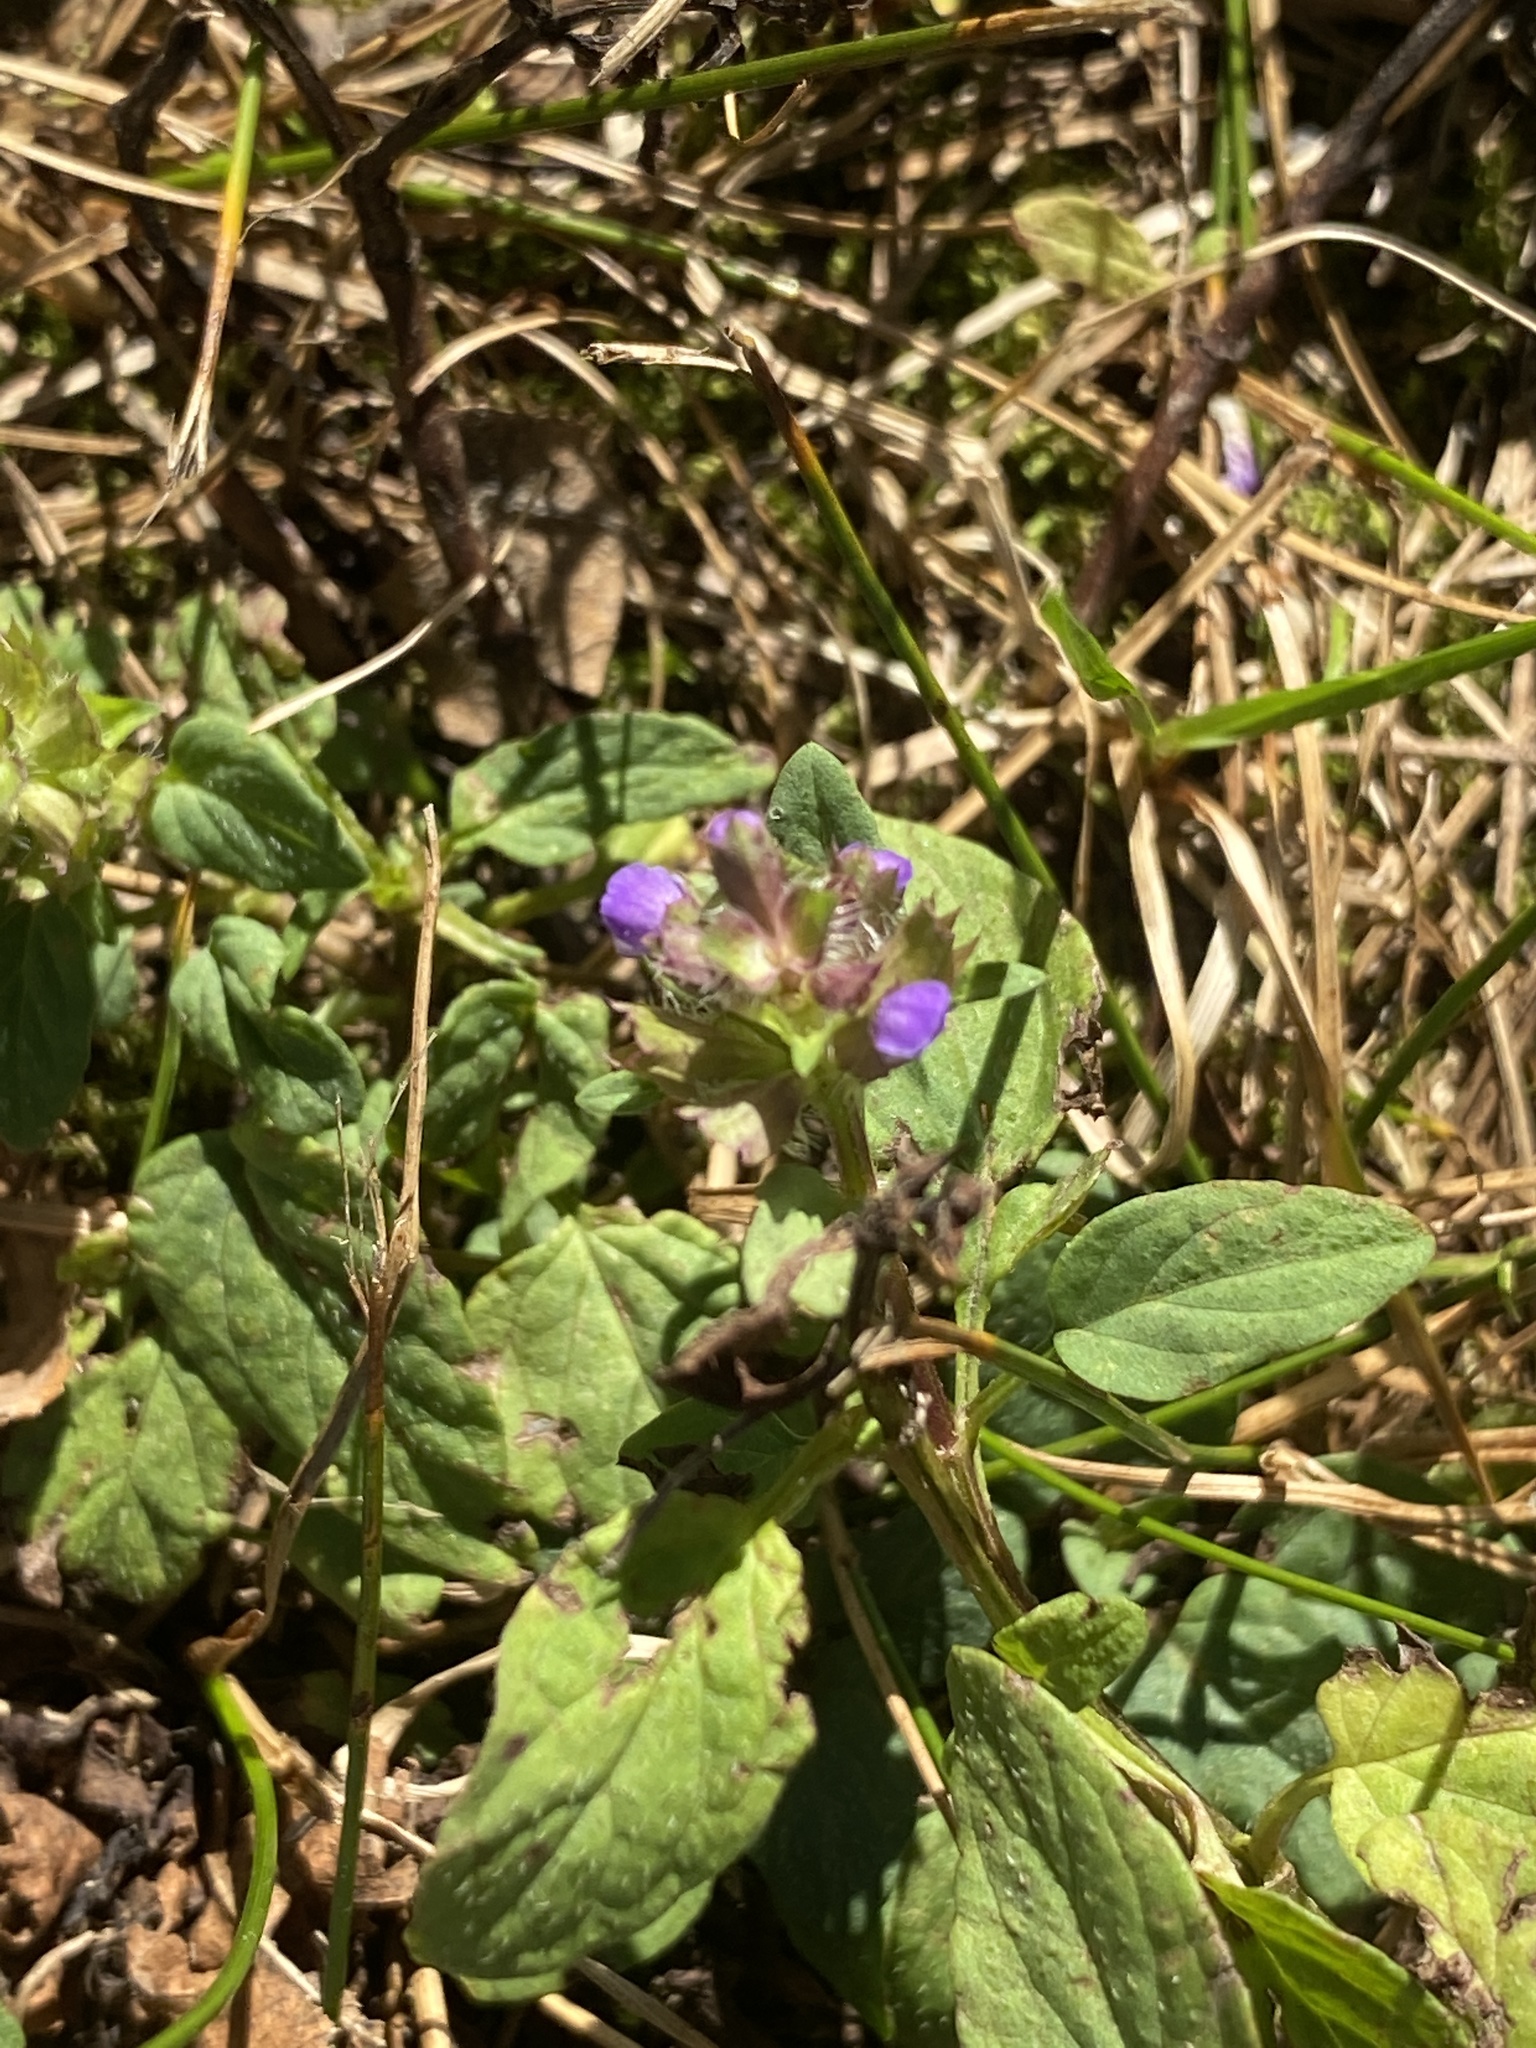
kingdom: Plantae
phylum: Tracheophyta
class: Magnoliopsida
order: Lamiales
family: Lamiaceae
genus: Prunella
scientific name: Prunella vulgaris
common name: Heal-all
